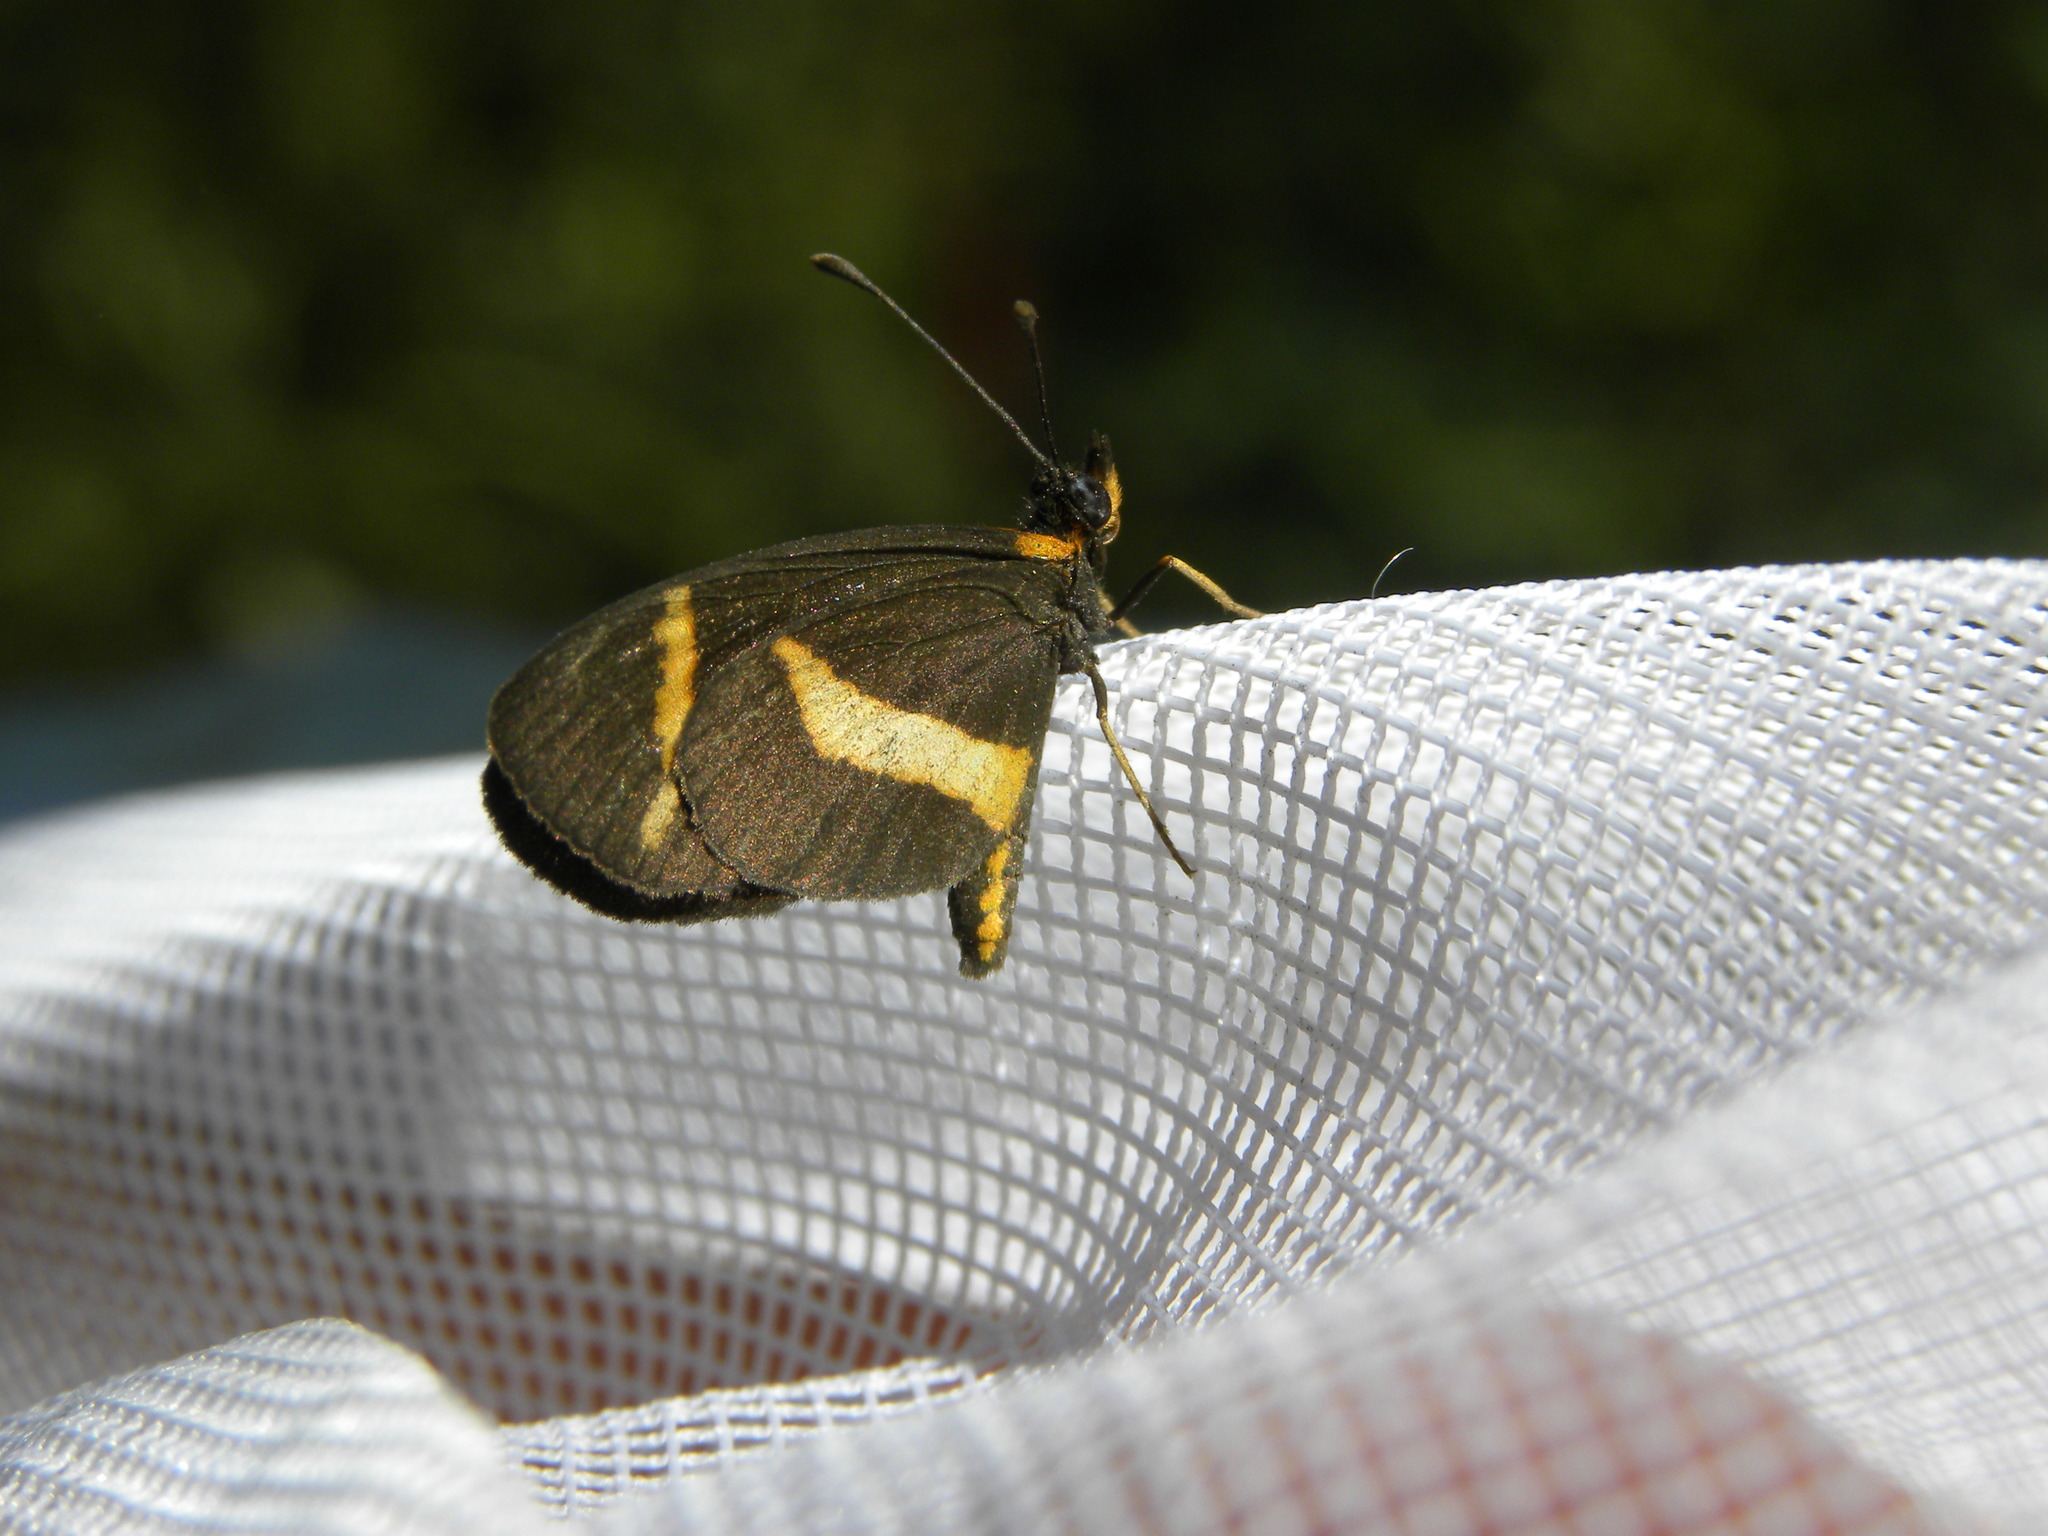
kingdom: Animalia
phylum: Arthropoda
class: Insecta
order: Lepidoptera
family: Nymphalidae
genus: Microtia
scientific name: Microtia elva
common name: Elf
